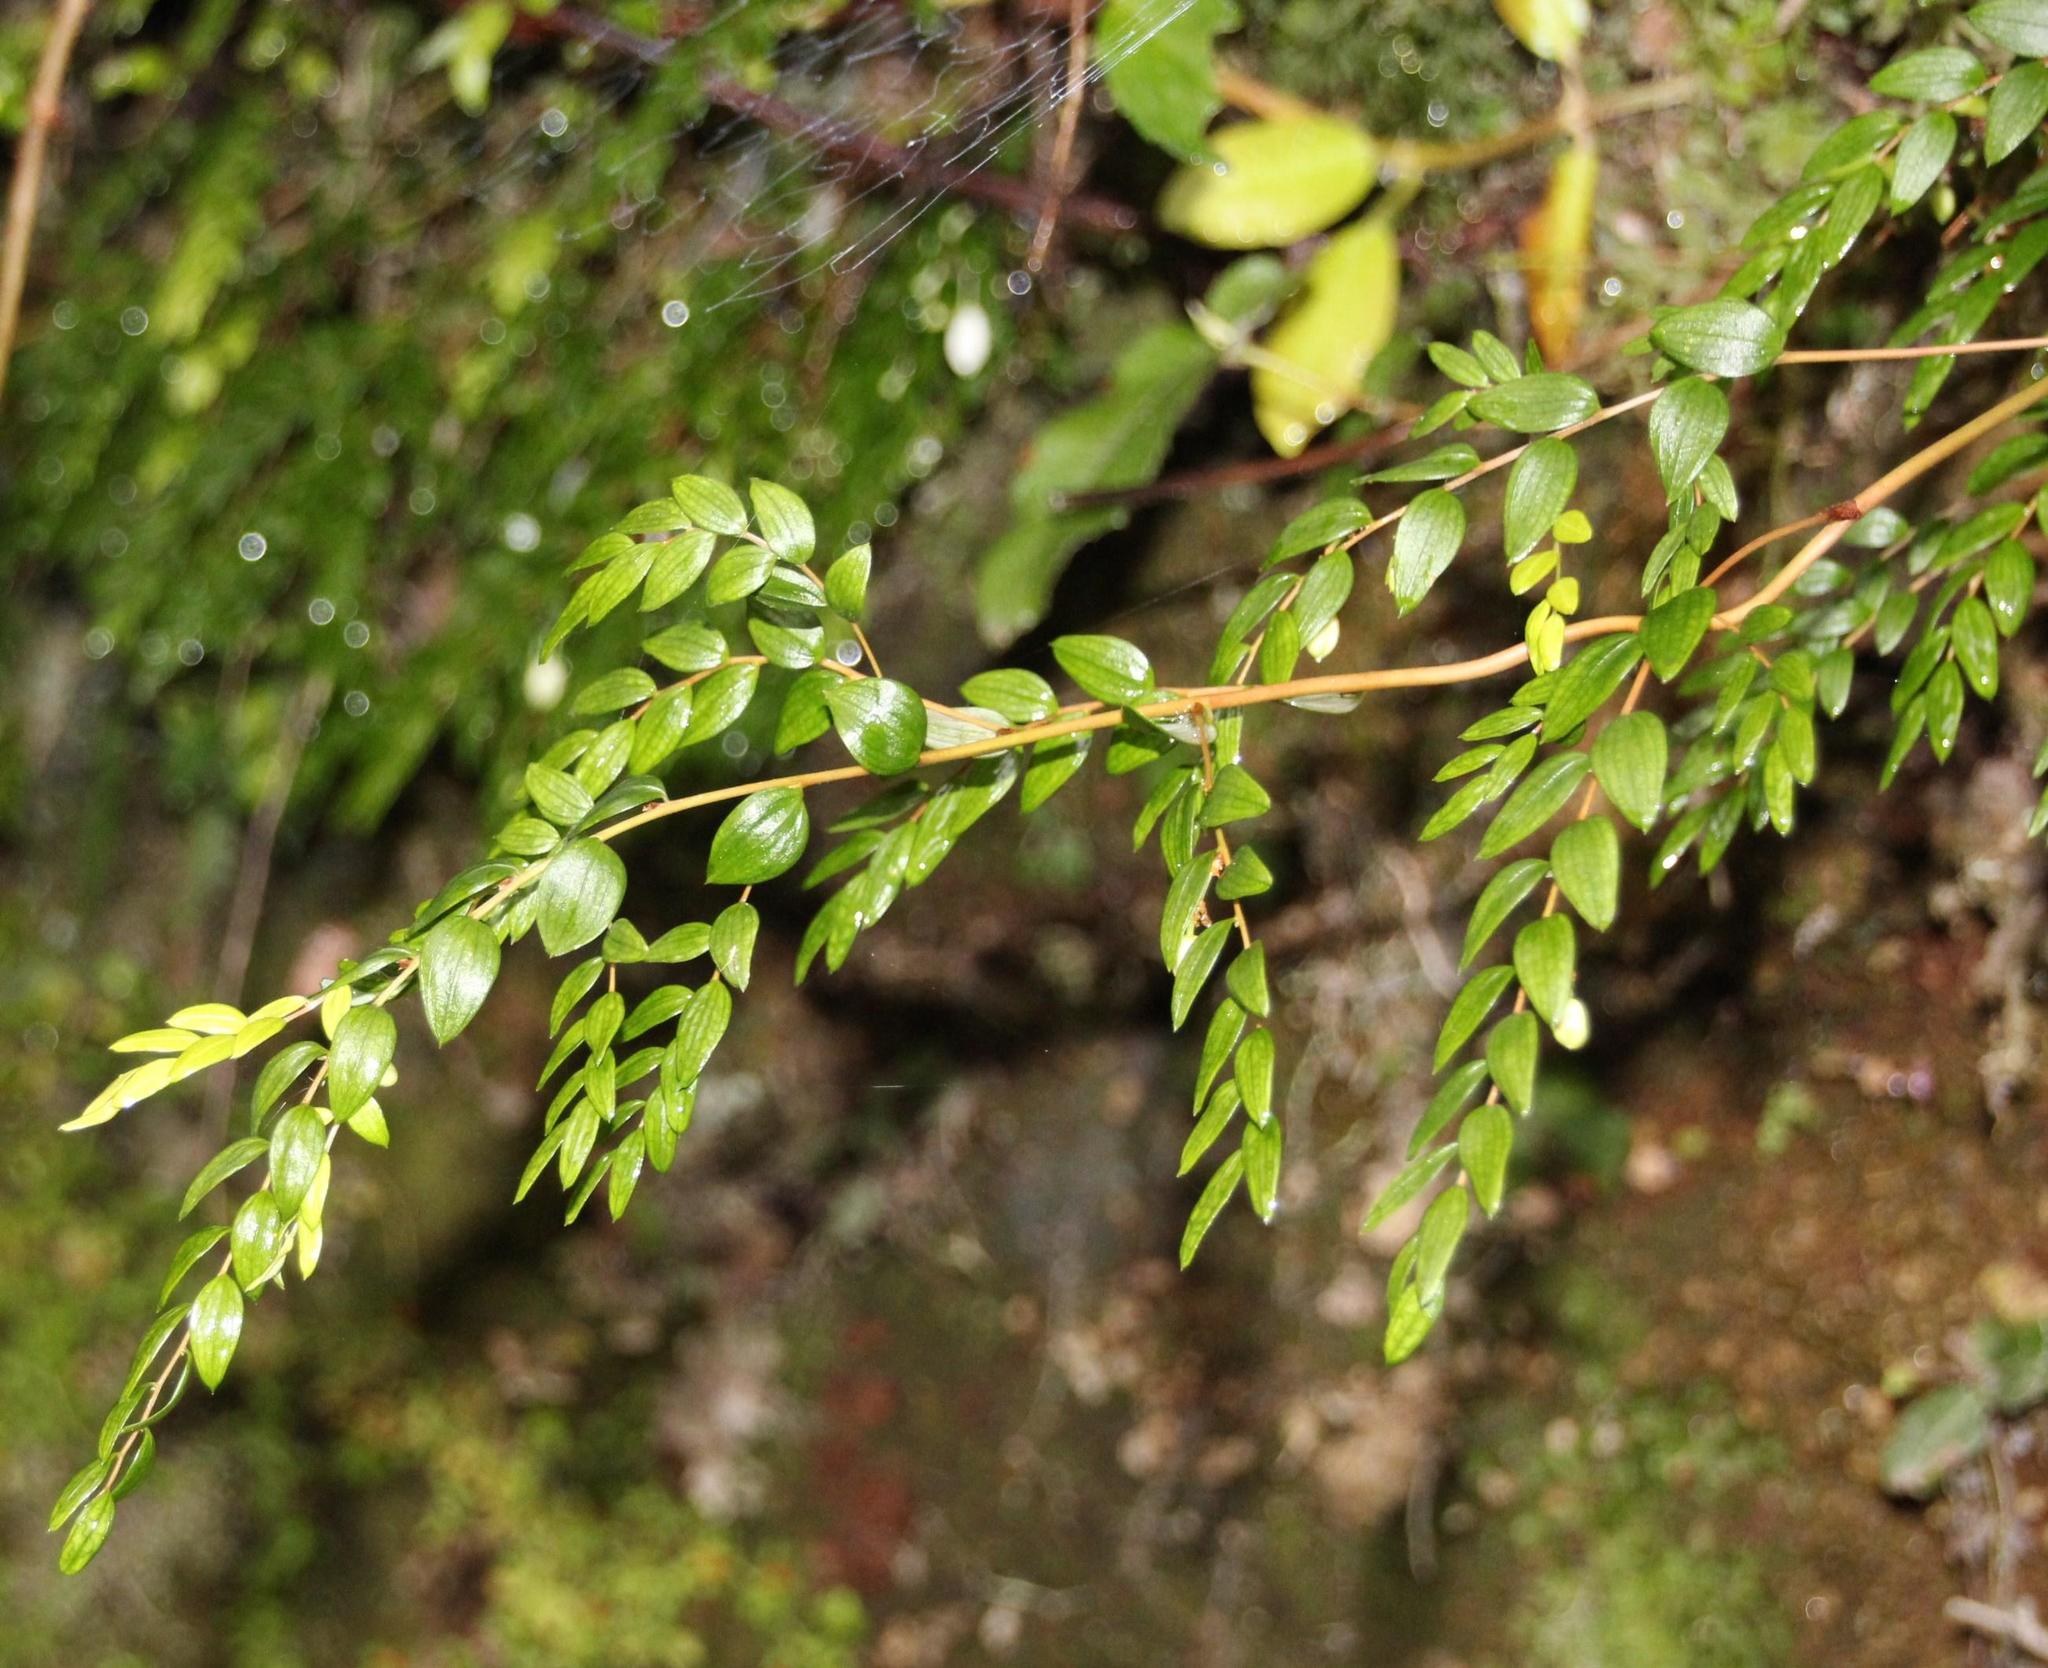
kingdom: Plantae
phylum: Tracheophyta
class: Liliopsida
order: Liliales
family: Alstroemeriaceae
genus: Luzuriaga
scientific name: Luzuriaga polyphylla
